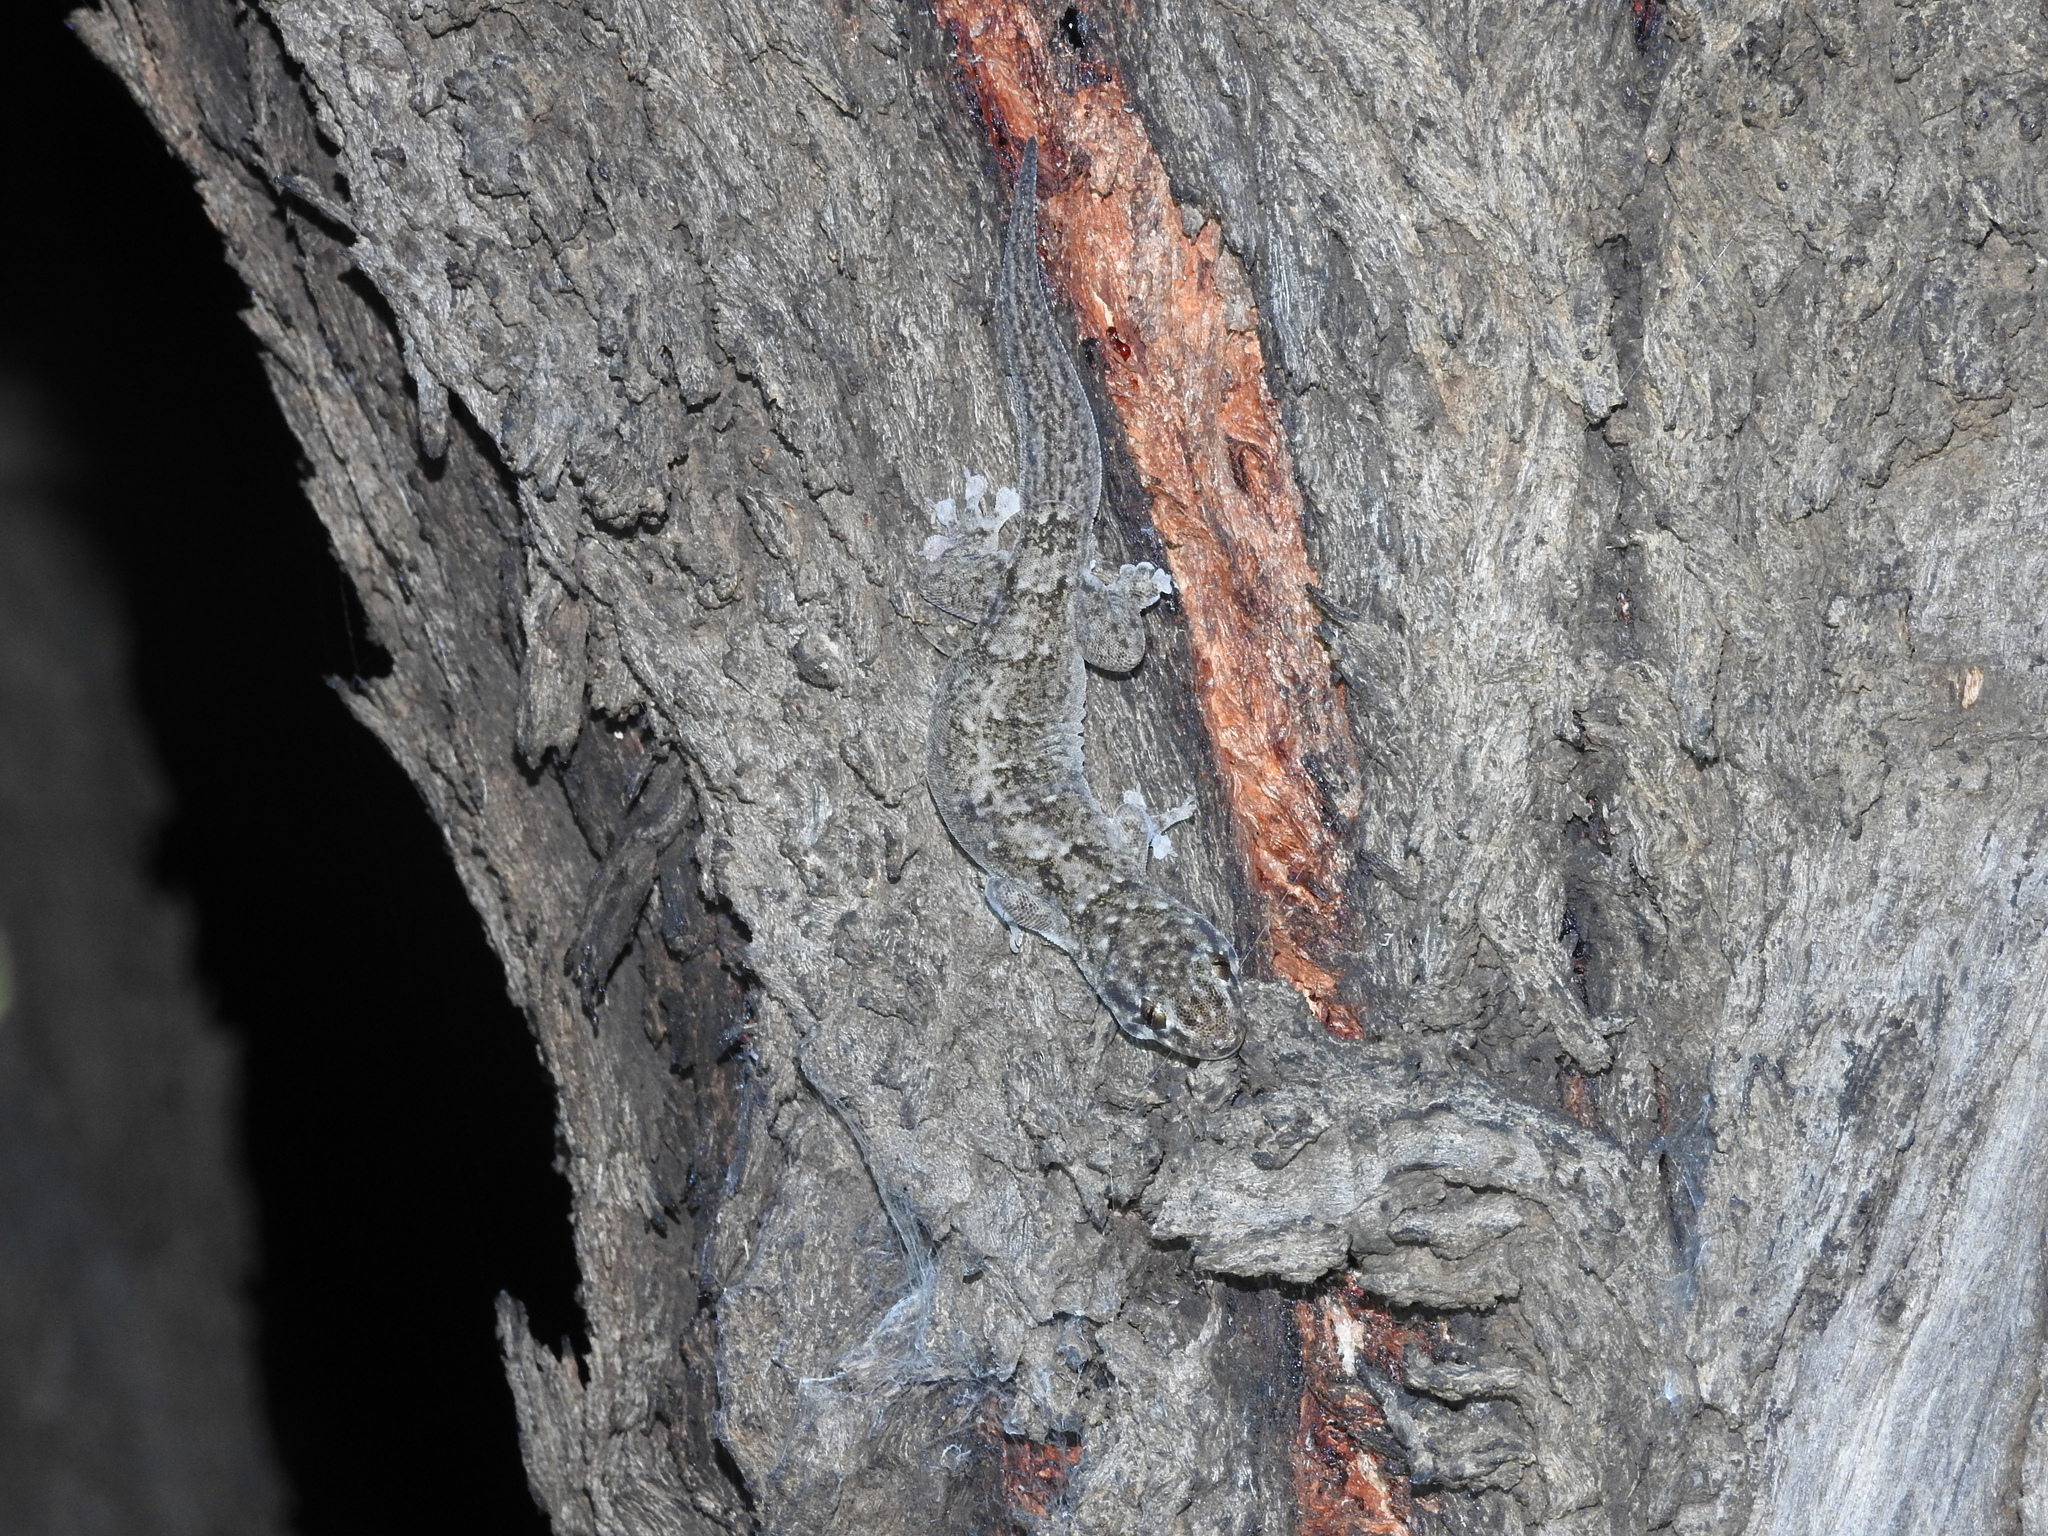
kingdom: Animalia
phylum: Chordata
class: Squamata
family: Gekkonidae
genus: Gehyra
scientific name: Gehyra dubia
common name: Dubious dtella
